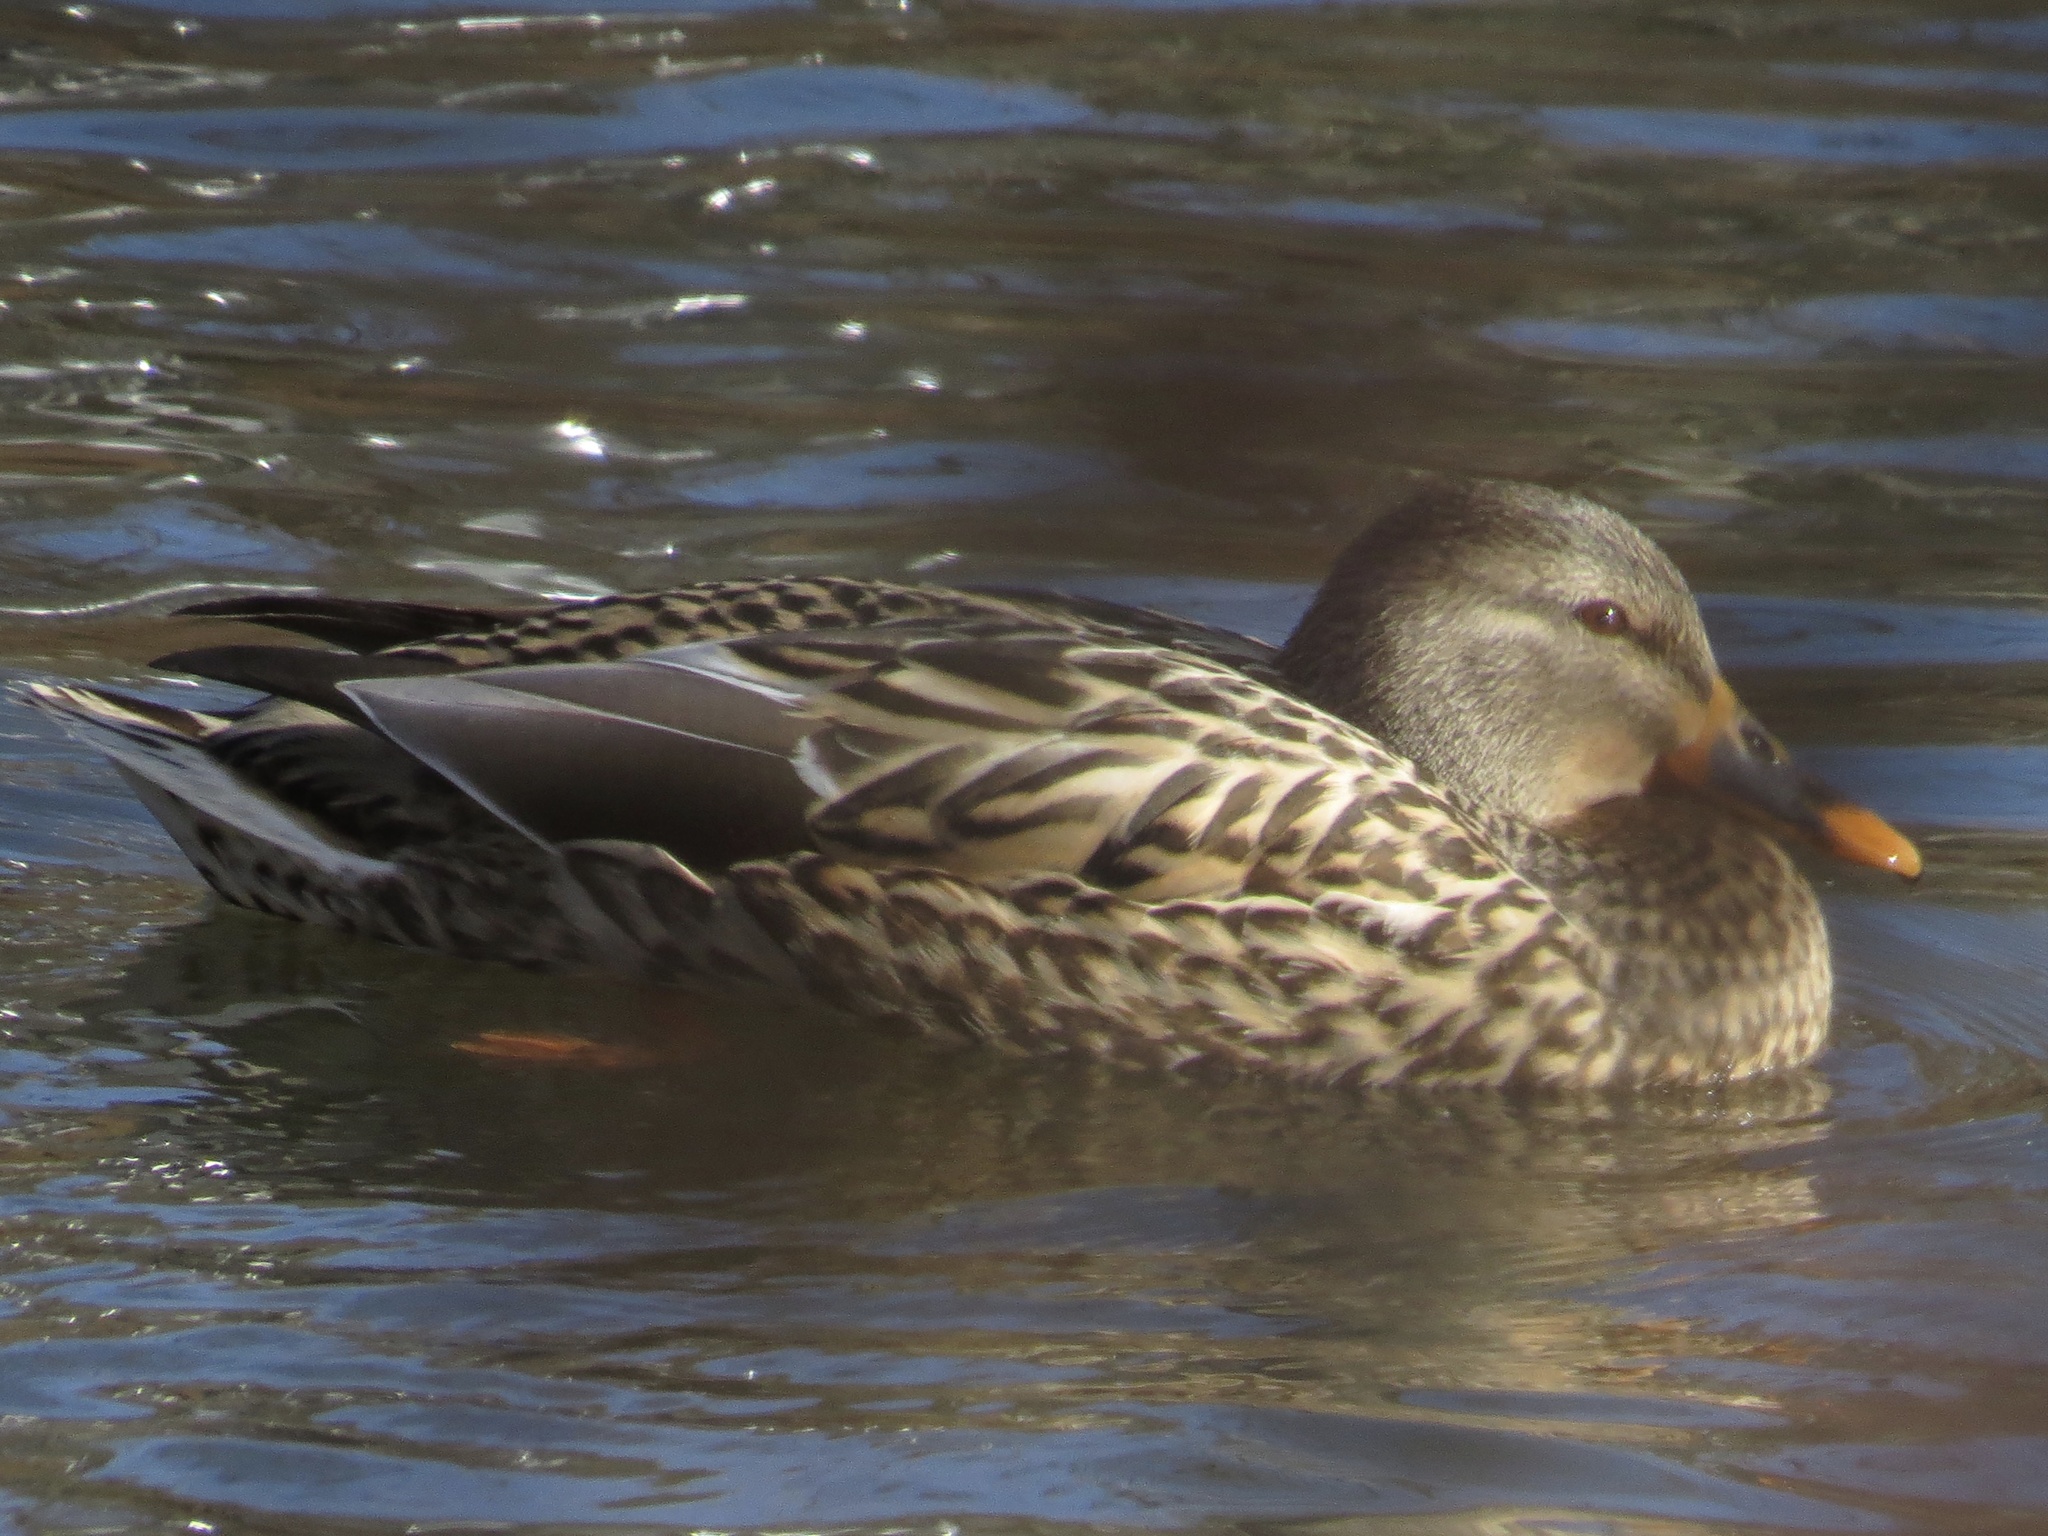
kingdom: Animalia
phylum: Chordata
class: Aves
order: Anseriformes
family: Anatidae
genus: Anas
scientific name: Anas platyrhynchos
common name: Mallard
